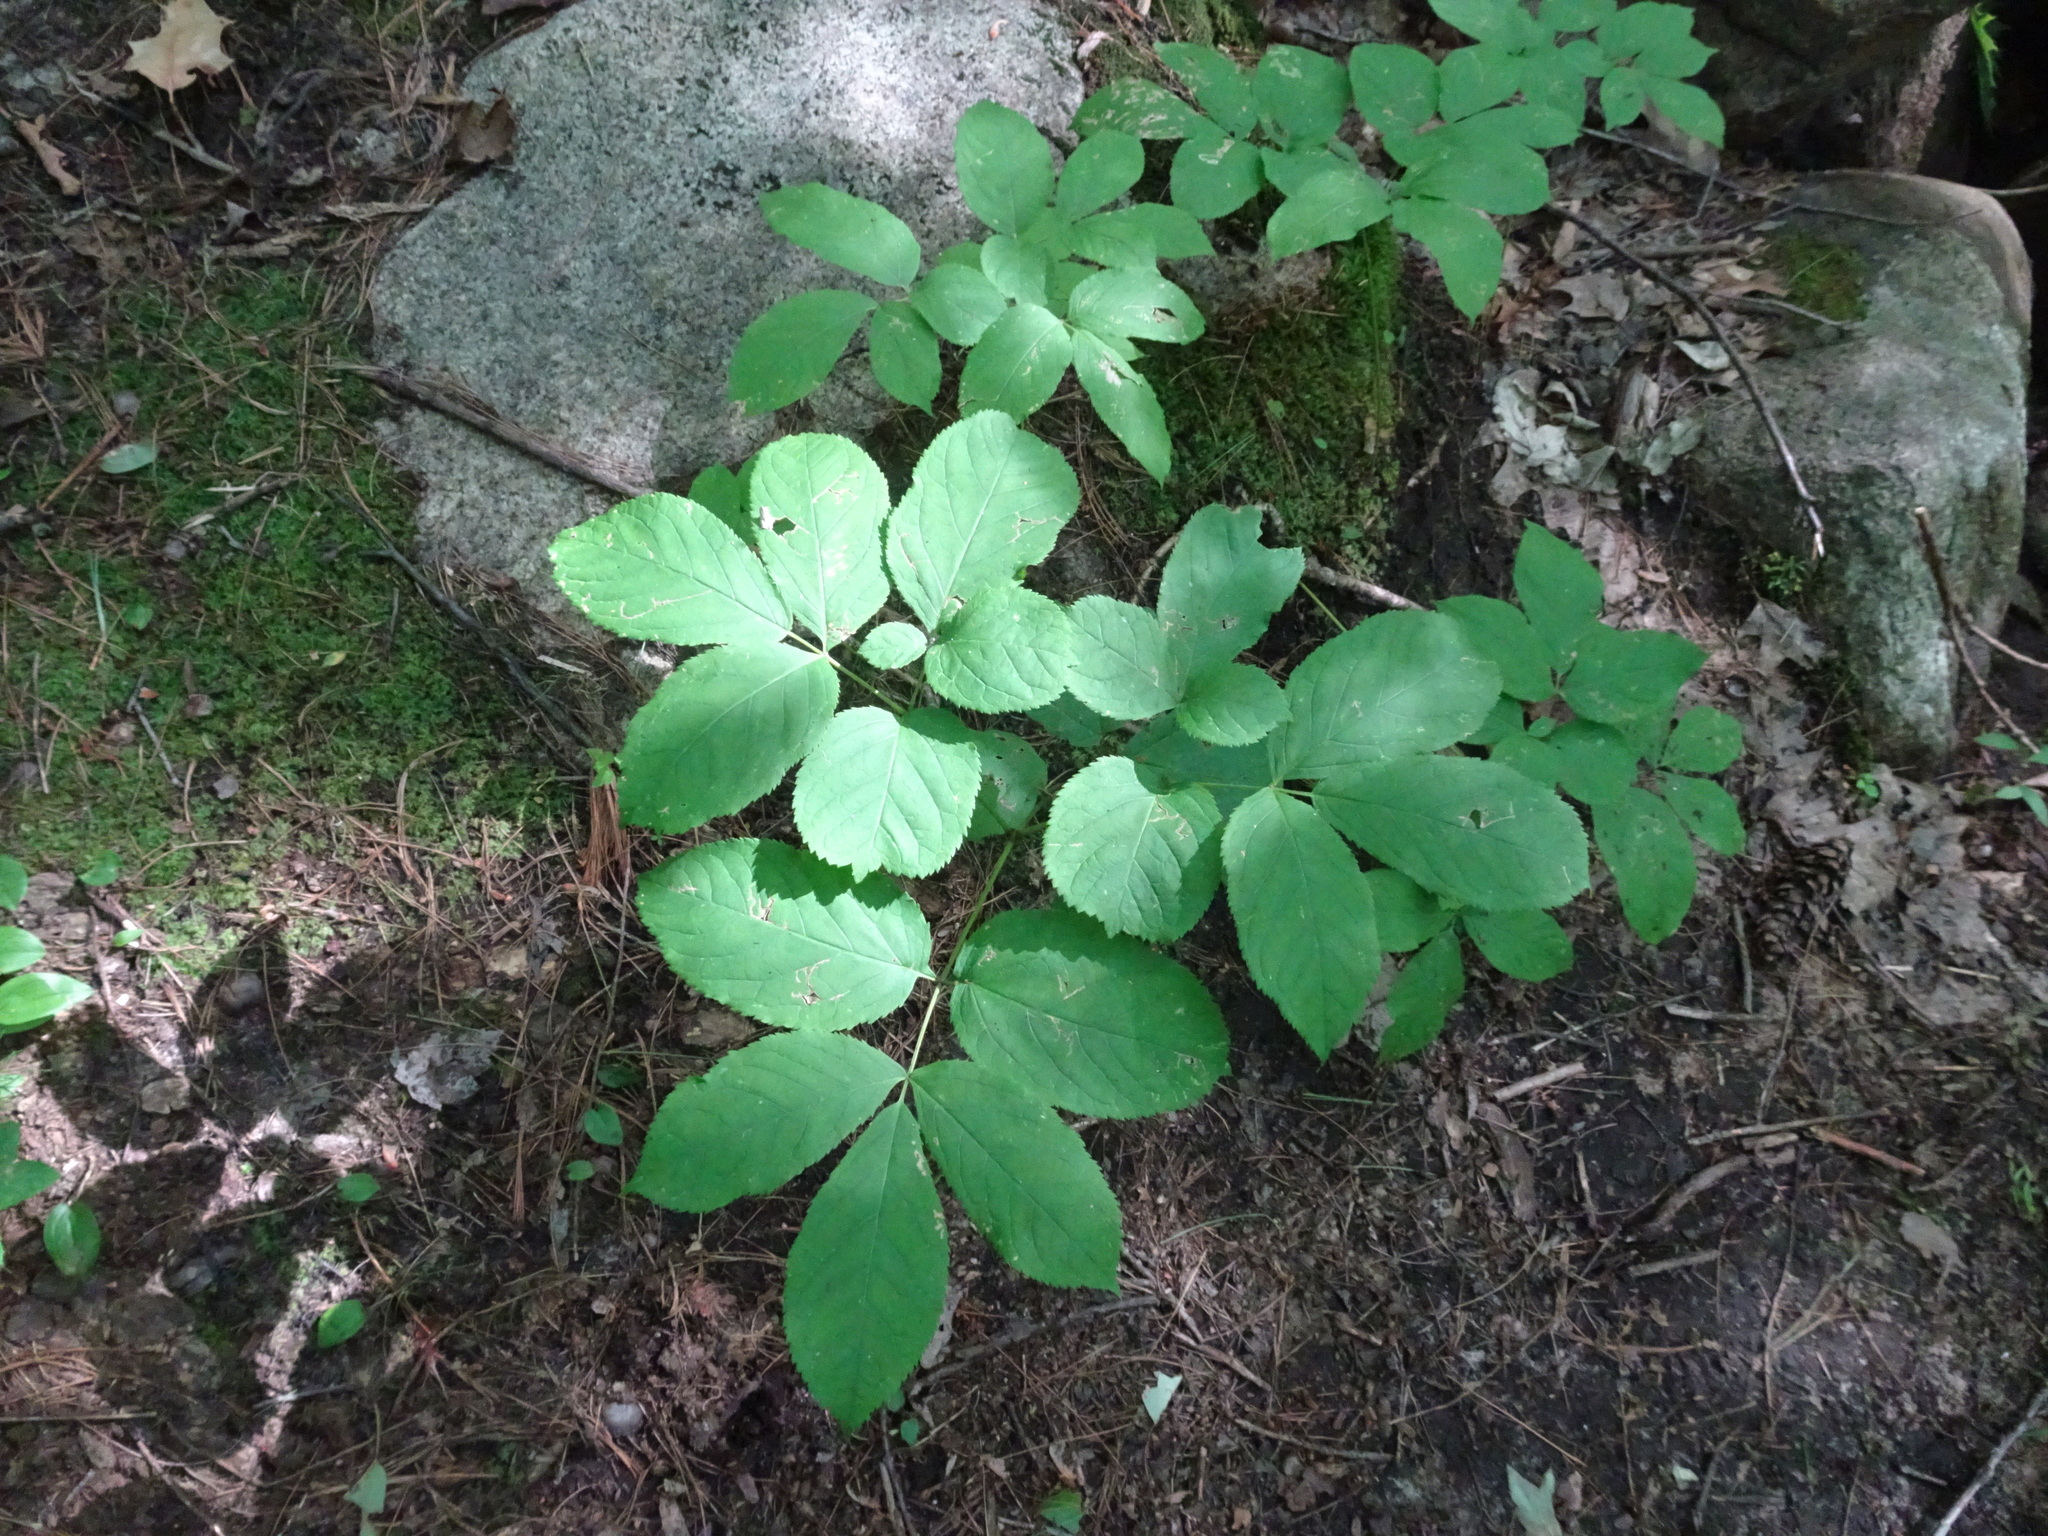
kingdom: Plantae
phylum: Tracheophyta
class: Magnoliopsida
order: Apiales
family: Araliaceae
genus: Aralia
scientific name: Aralia nudicaulis
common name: Wild sarsaparilla
